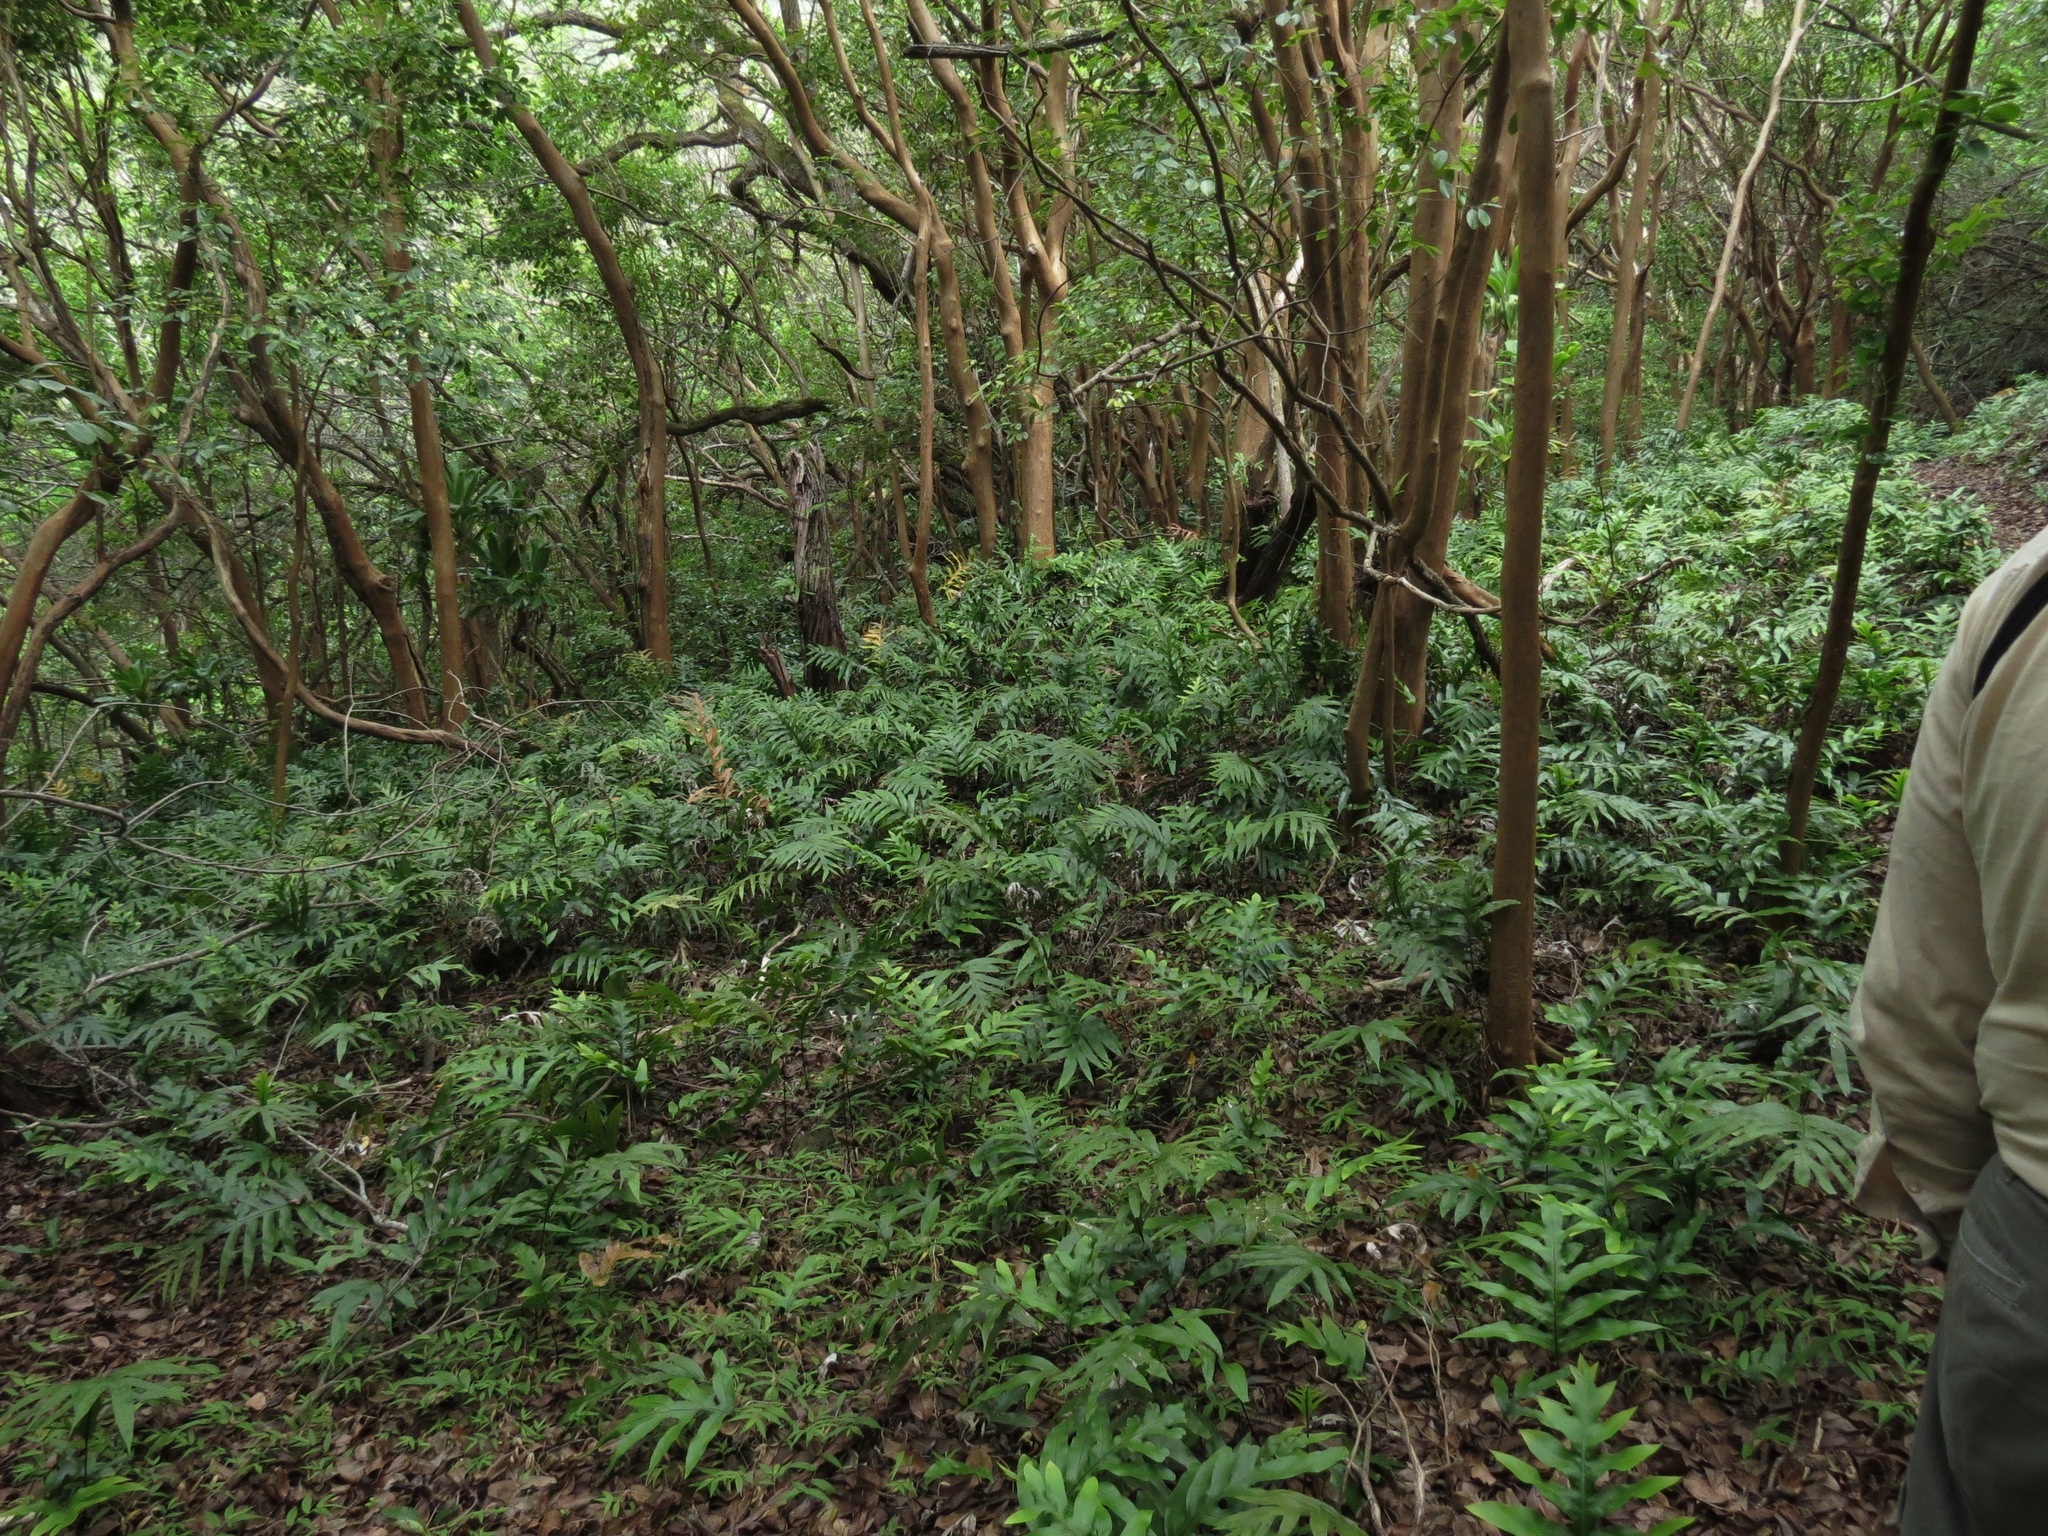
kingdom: Plantae
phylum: Tracheophyta
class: Polypodiopsida
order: Polypodiales
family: Polypodiaceae
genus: Microsorum
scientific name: Microsorum grossum
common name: Musk fern
